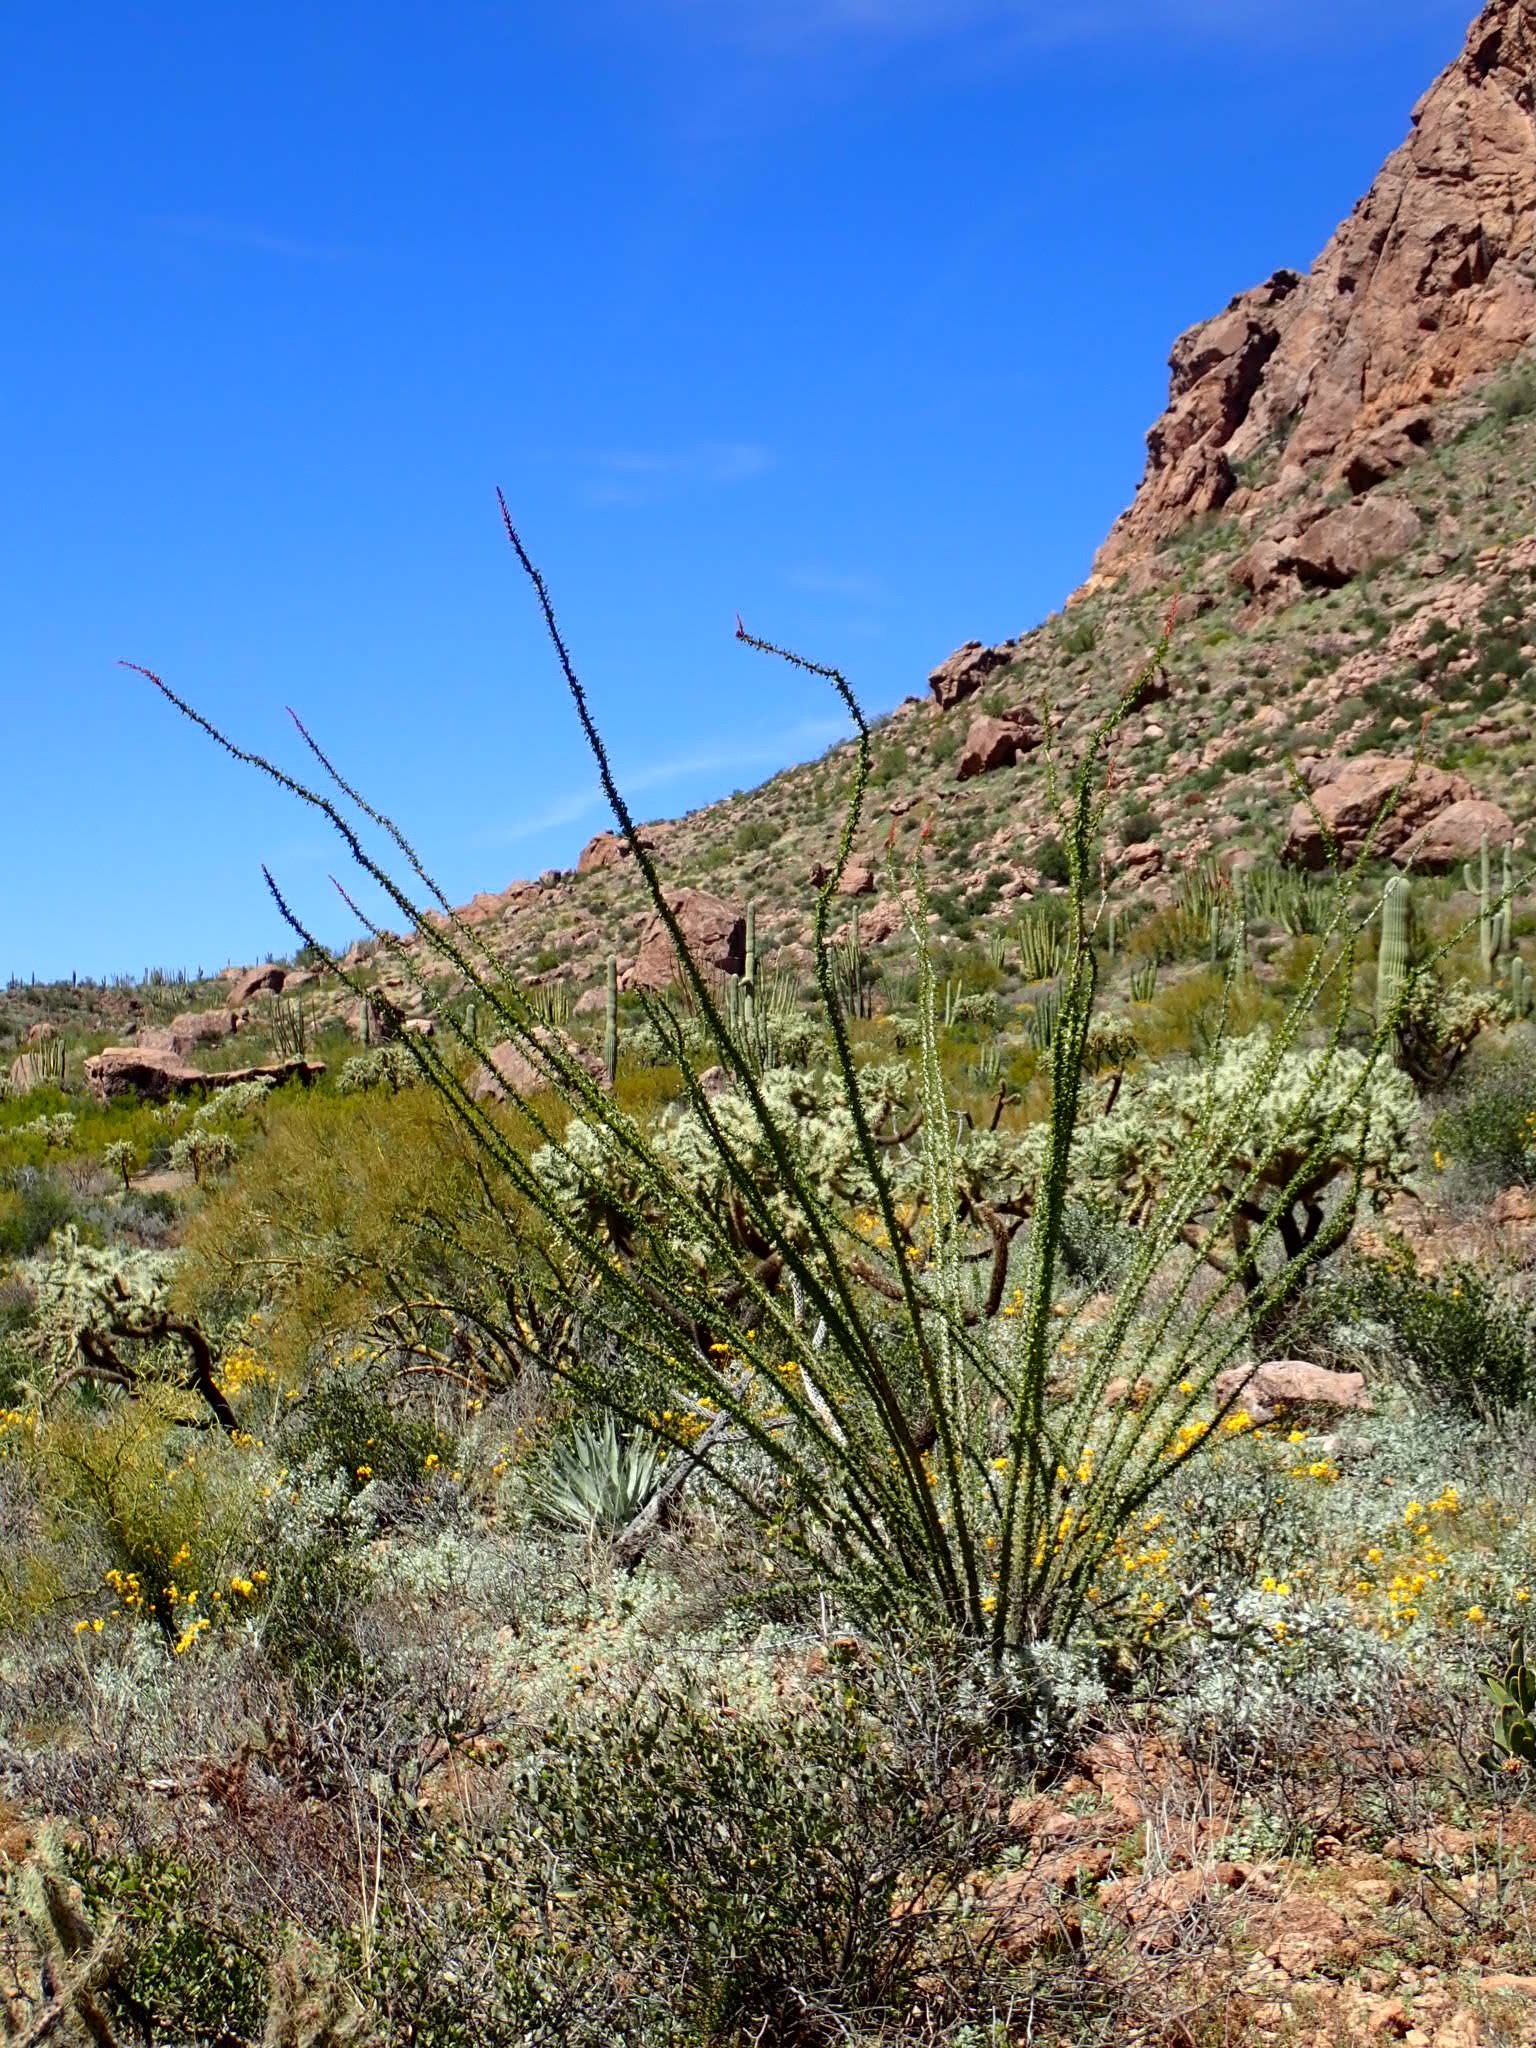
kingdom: Plantae
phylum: Tracheophyta
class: Magnoliopsida
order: Ericales
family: Fouquieriaceae
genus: Fouquieria
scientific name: Fouquieria splendens
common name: Vine-cactus
